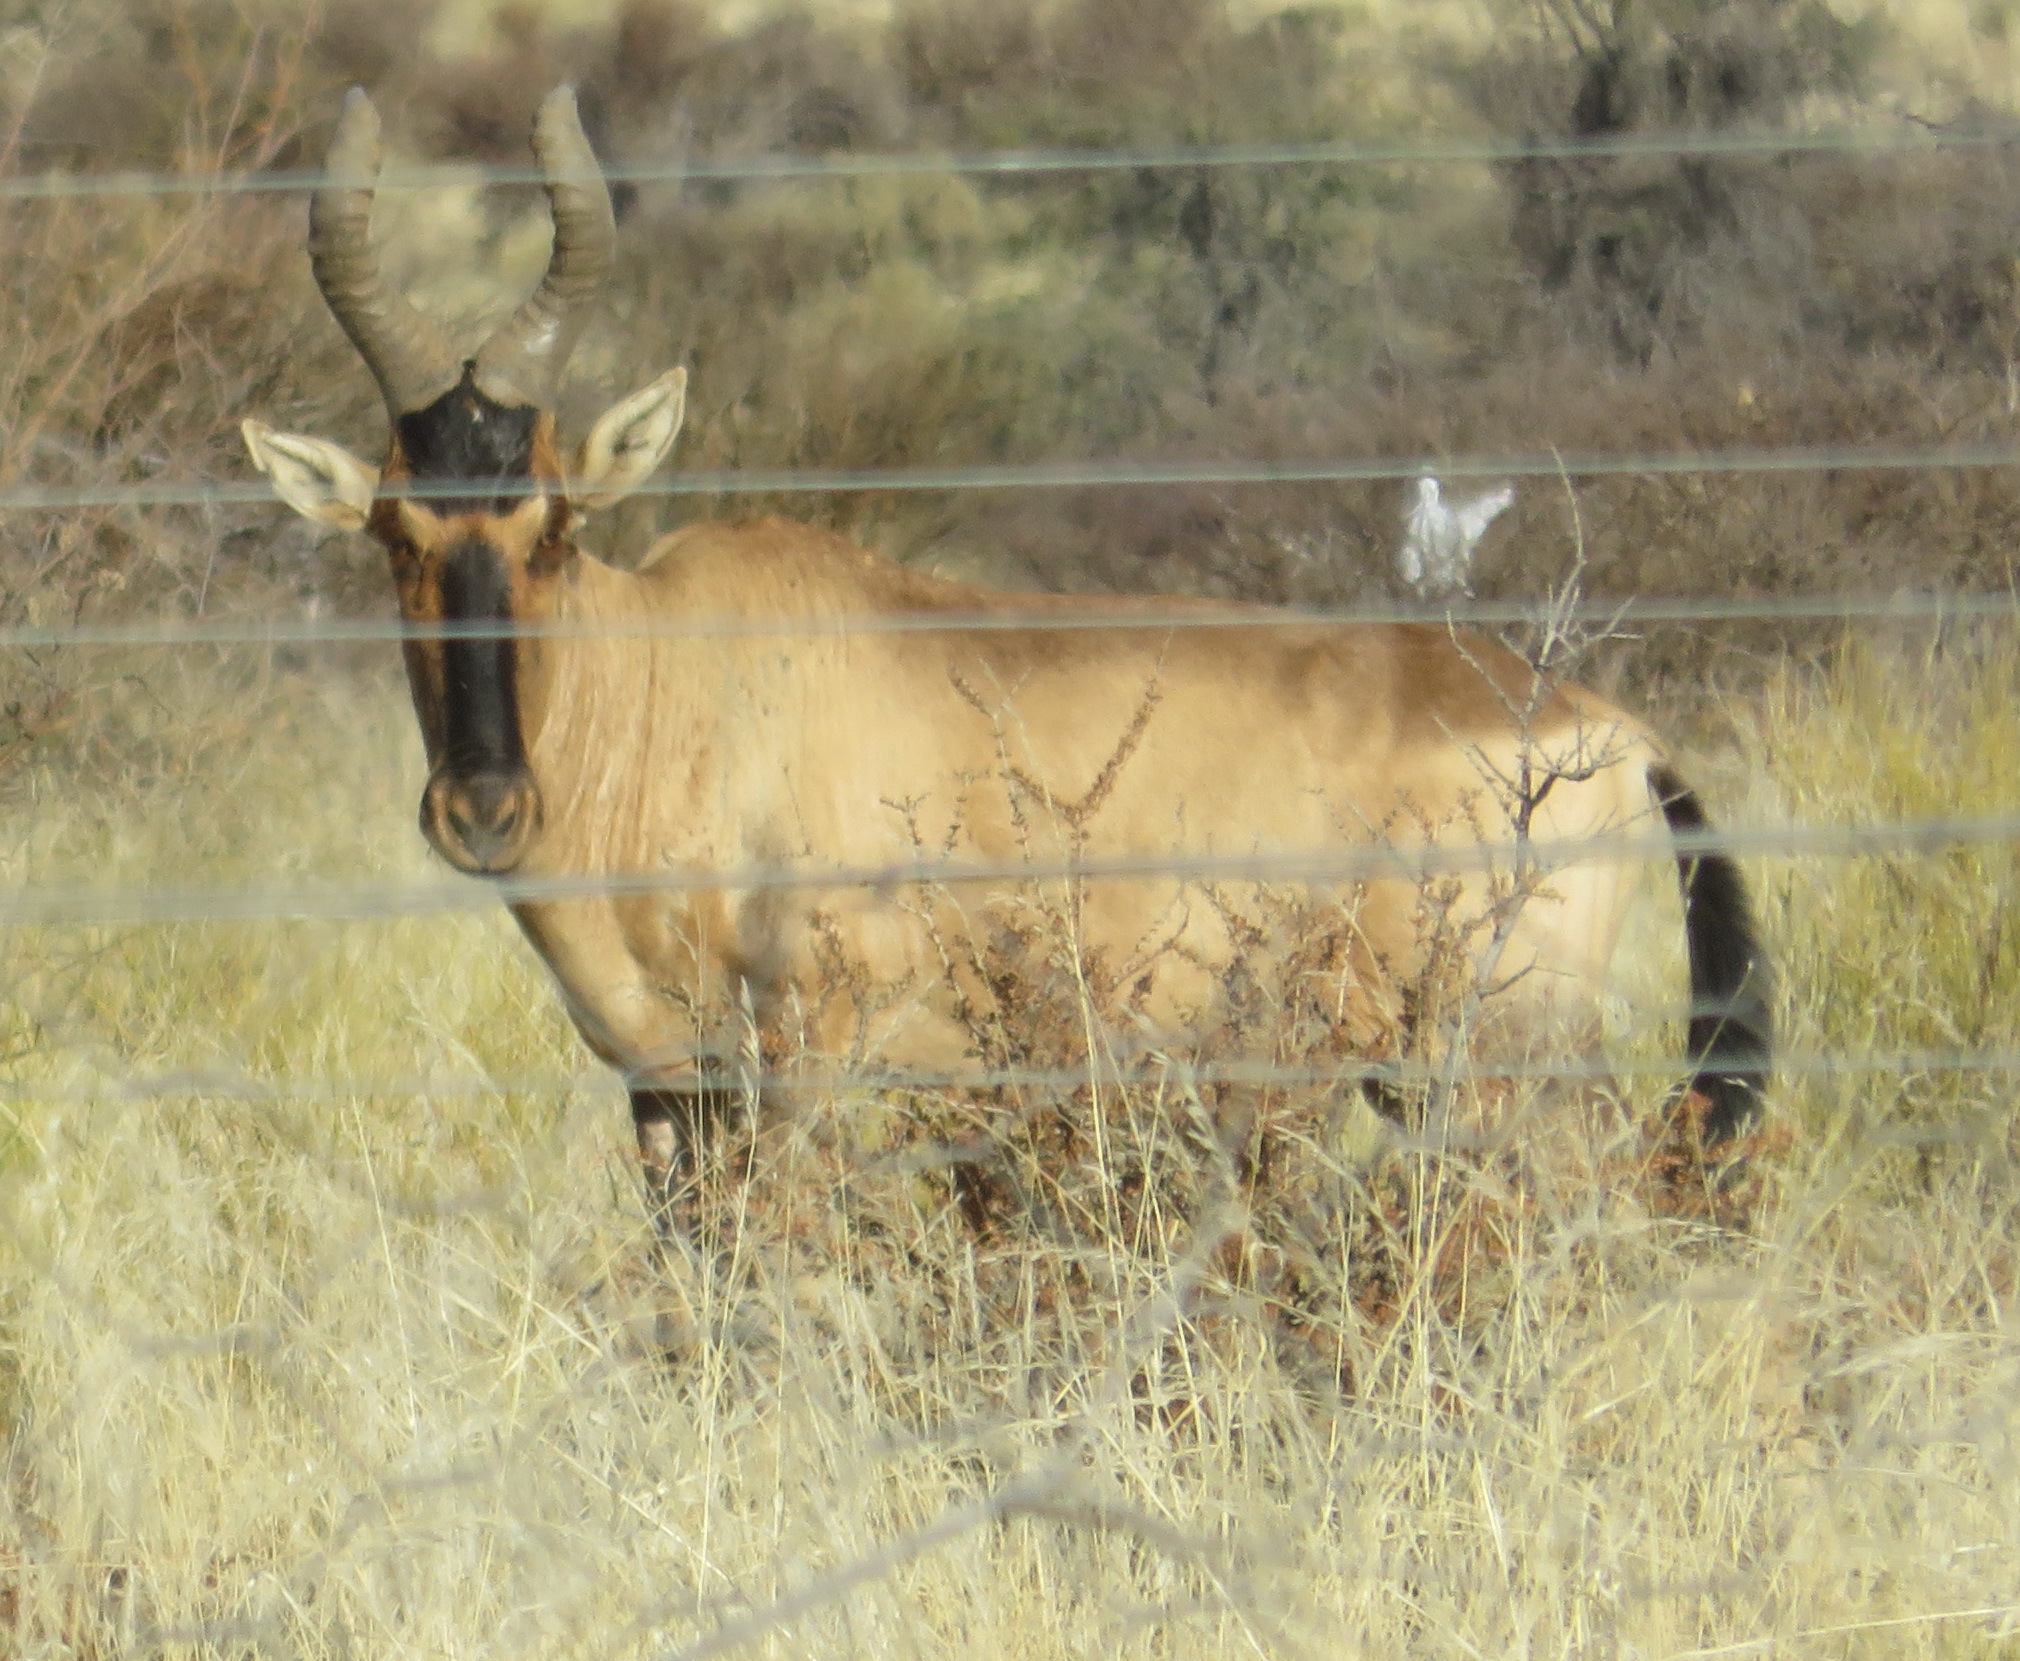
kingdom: Animalia
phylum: Chordata
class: Mammalia
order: Artiodactyla
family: Bovidae
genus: Alcelaphus
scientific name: Alcelaphus caama
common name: Red hartebeest
